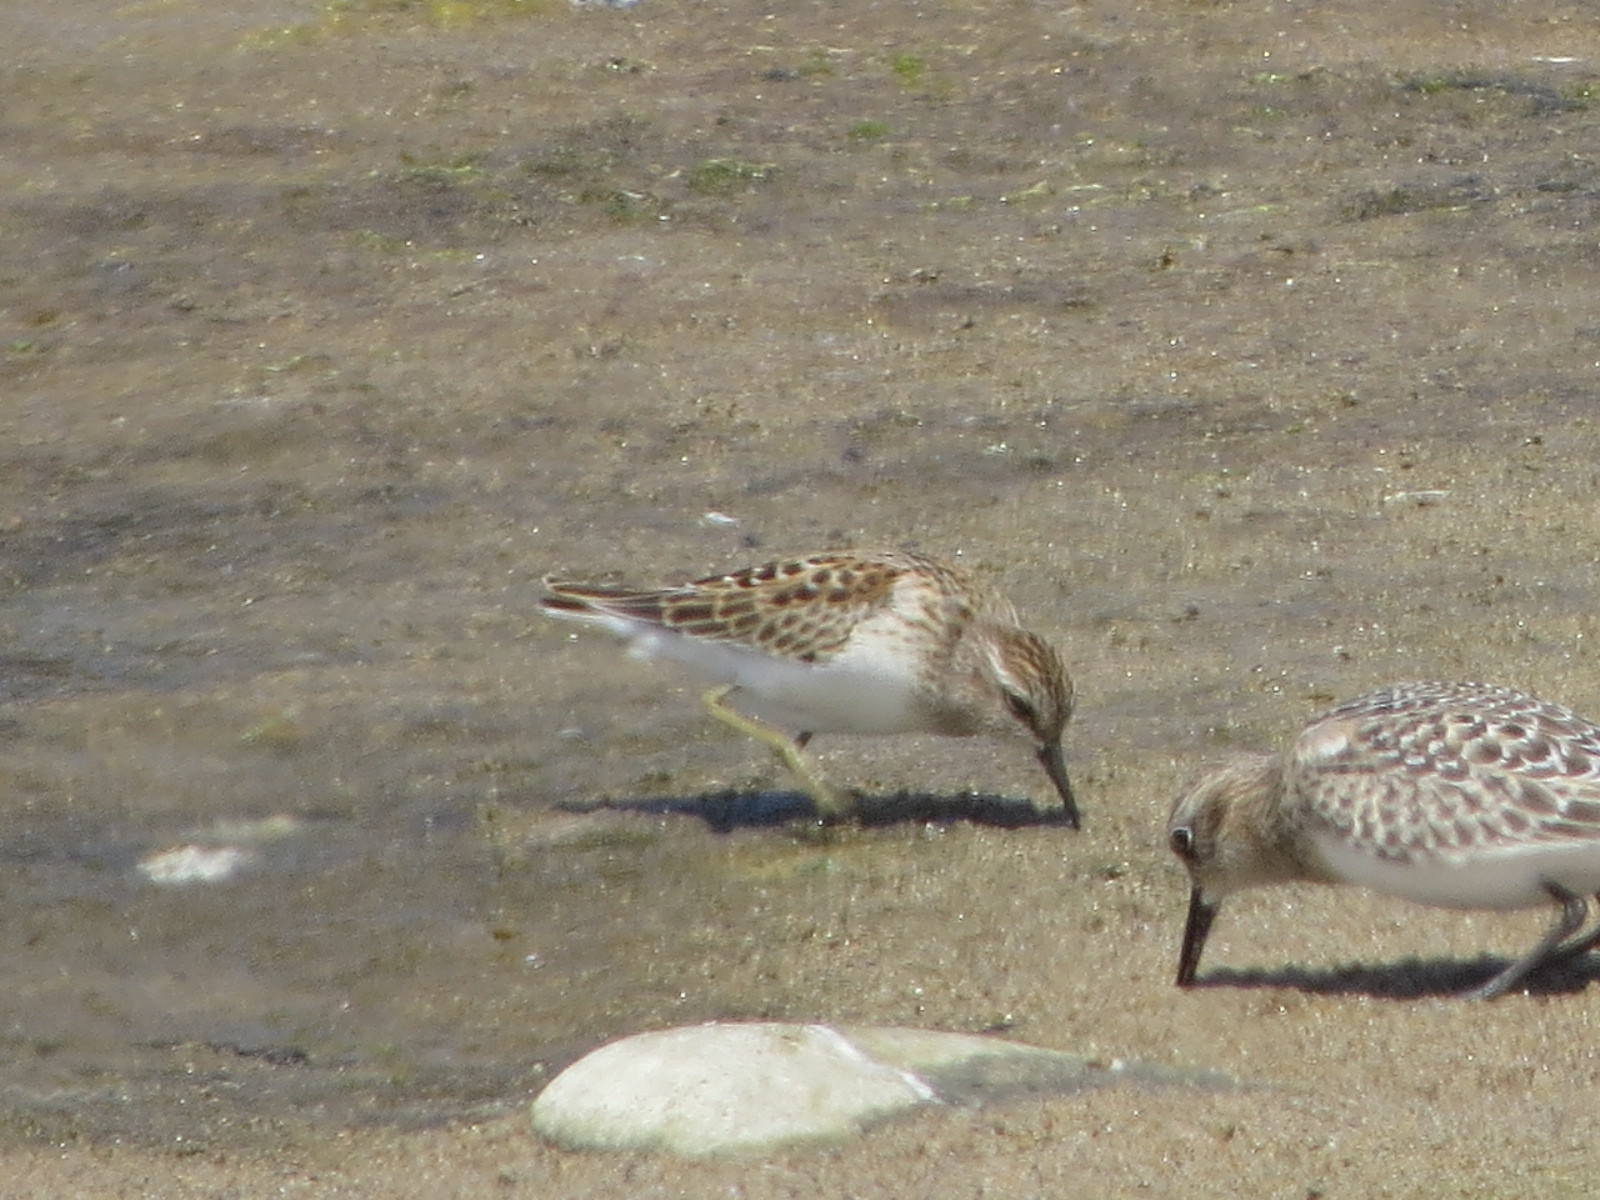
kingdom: Animalia
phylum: Chordata
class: Aves
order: Charadriiformes
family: Scolopacidae
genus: Calidris
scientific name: Calidris minutilla
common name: Least sandpiper
